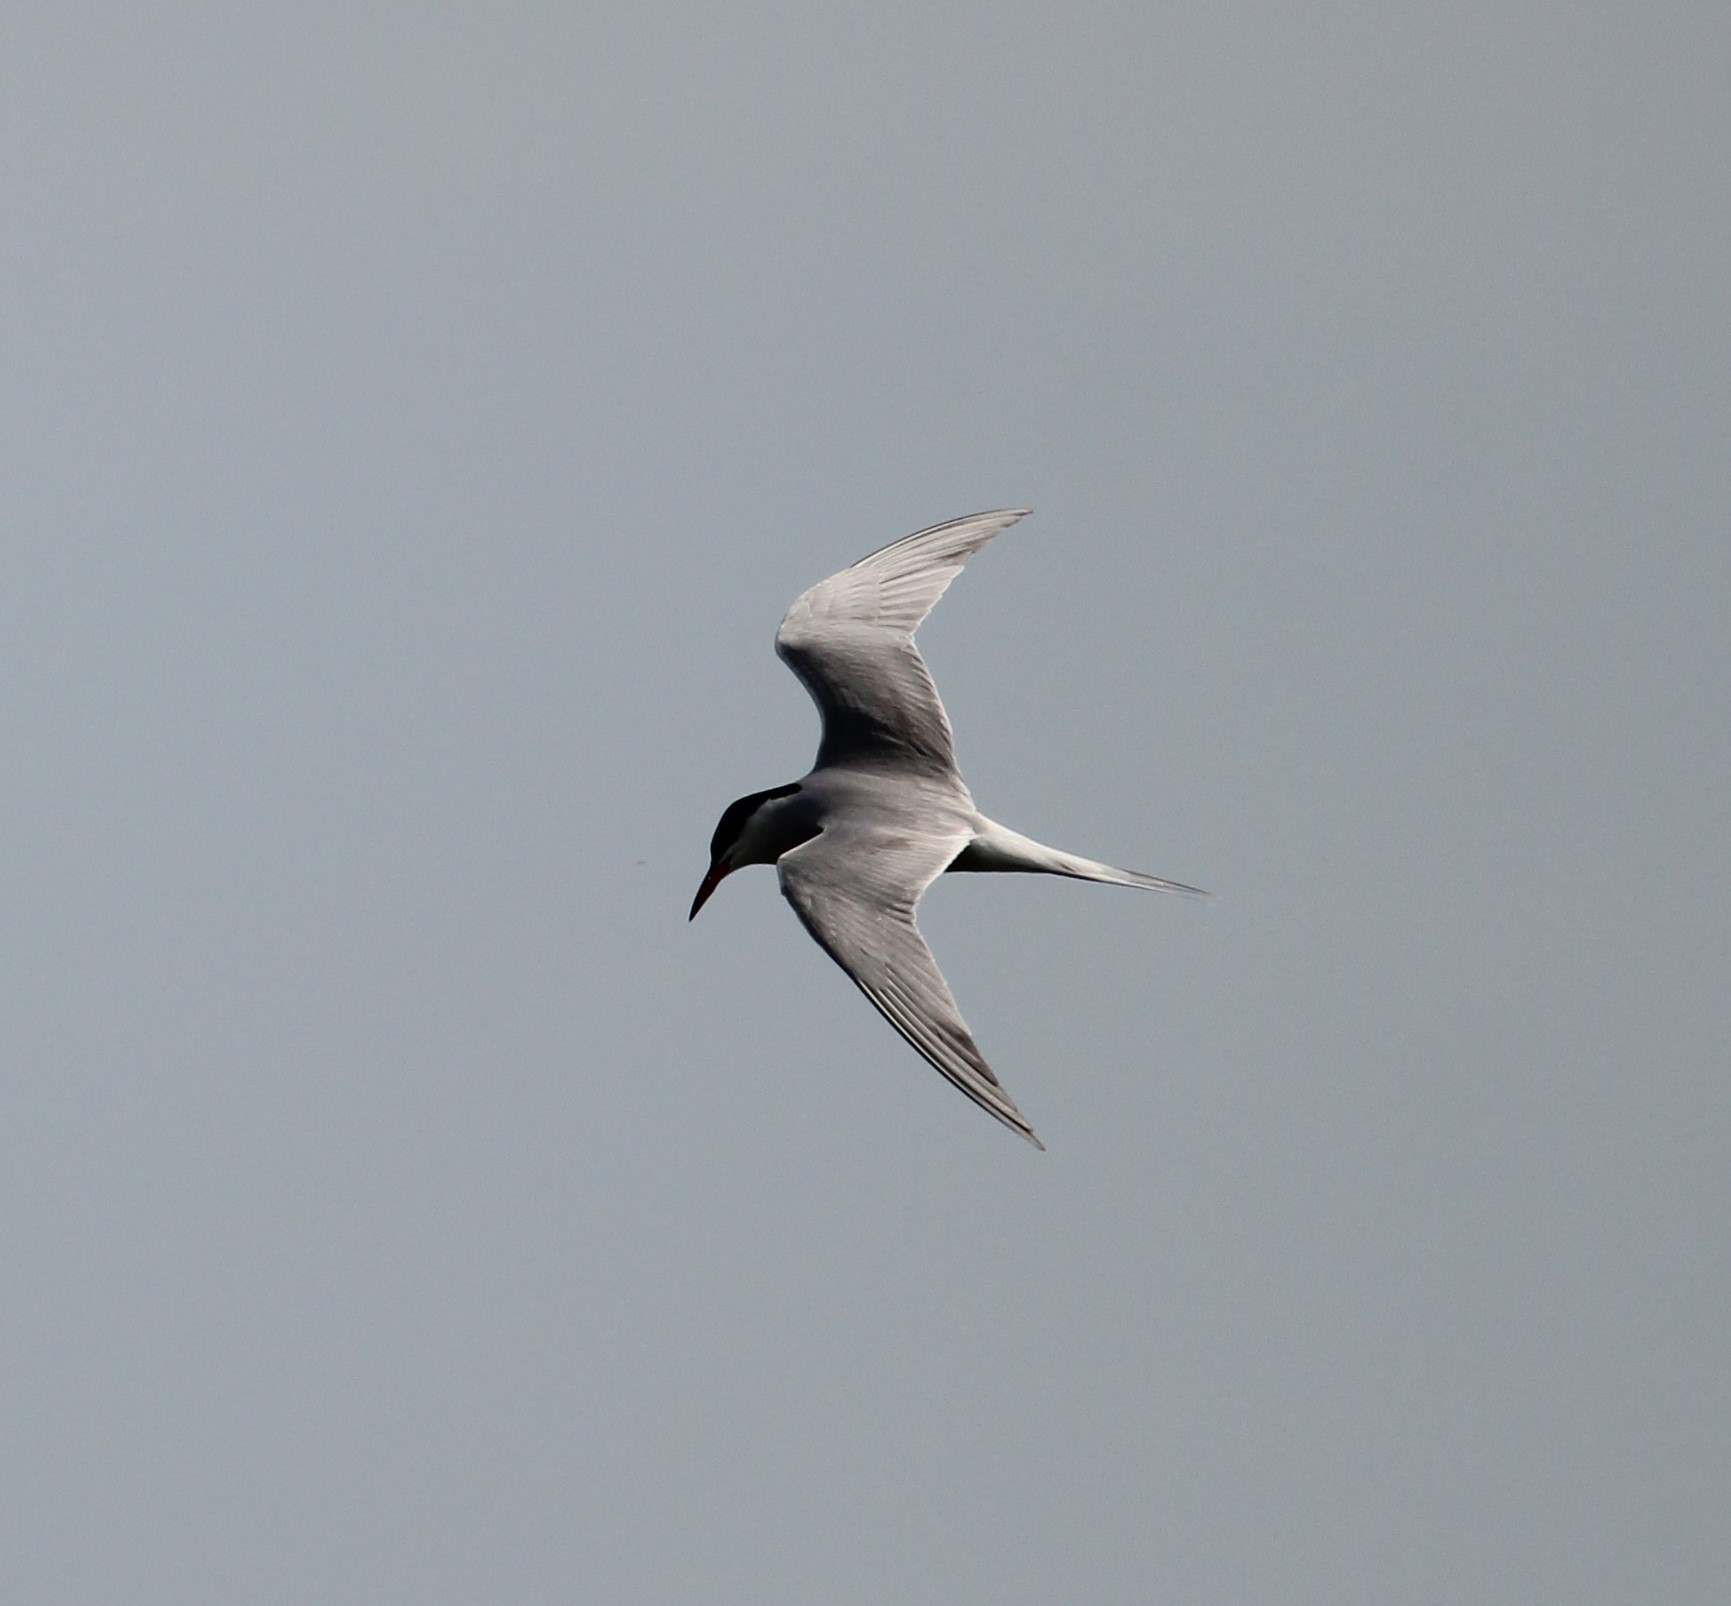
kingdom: Animalia
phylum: Chordata
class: Aves
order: Charadriiformes
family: Laridae
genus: Sterna
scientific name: Sterna hirundo
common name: Common tern
